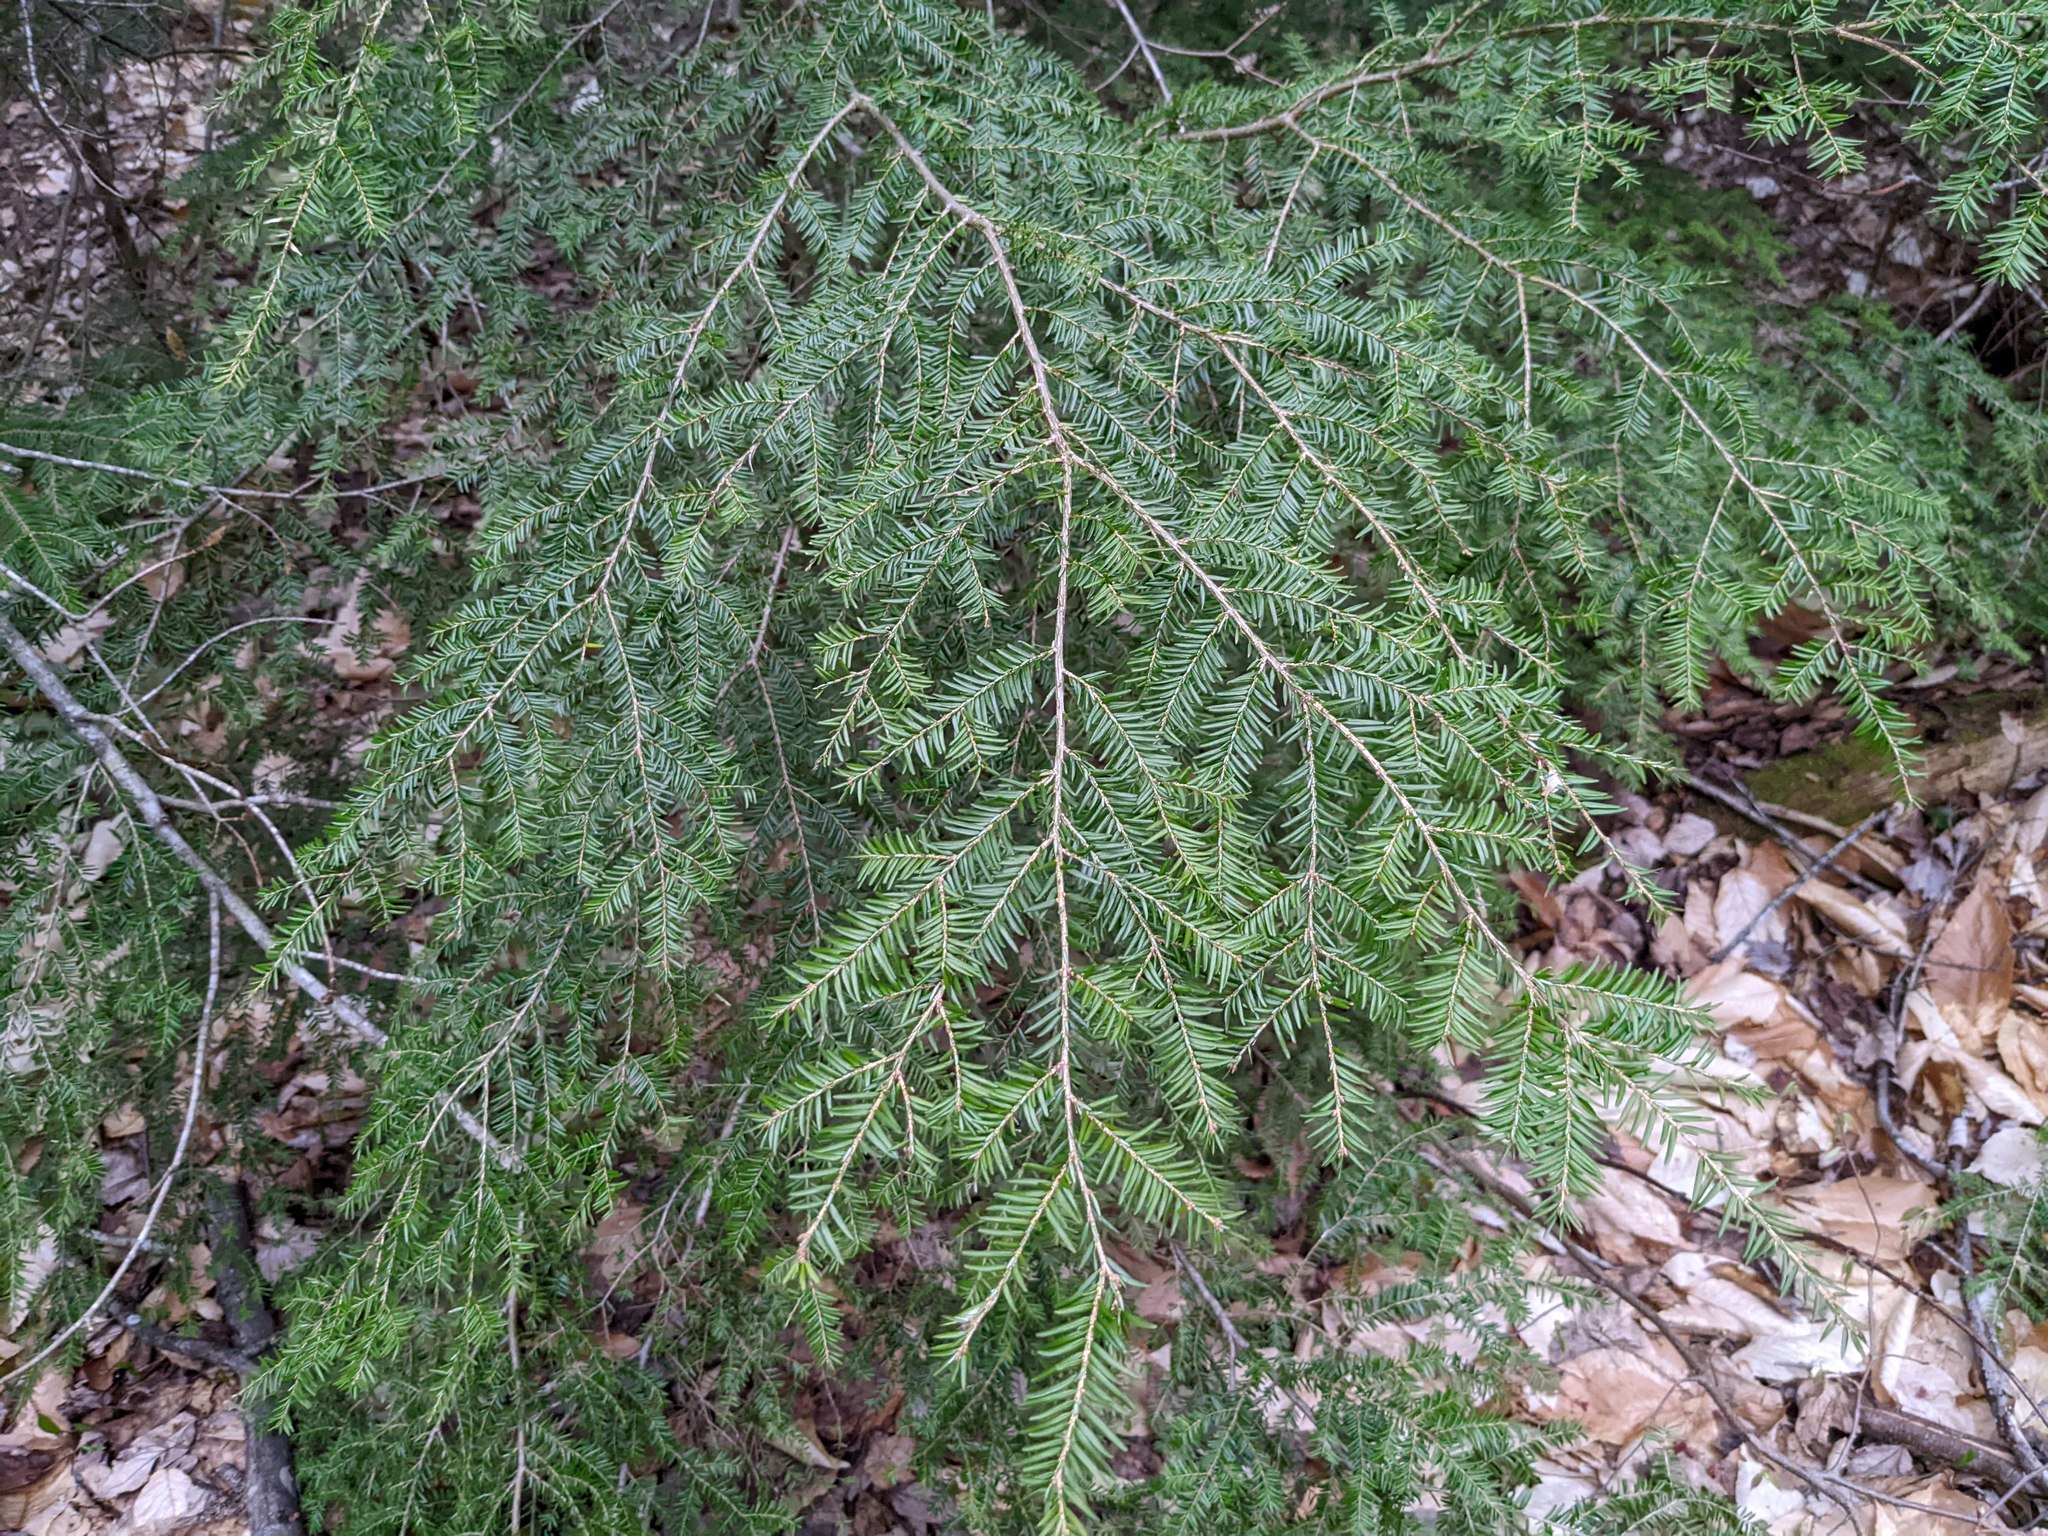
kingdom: Plantae
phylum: Tracheophyta
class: Pinopsida
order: Pinales
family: Pinaceae
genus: Tsuga
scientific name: Tsuga canadensis
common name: Eastern hemlock
